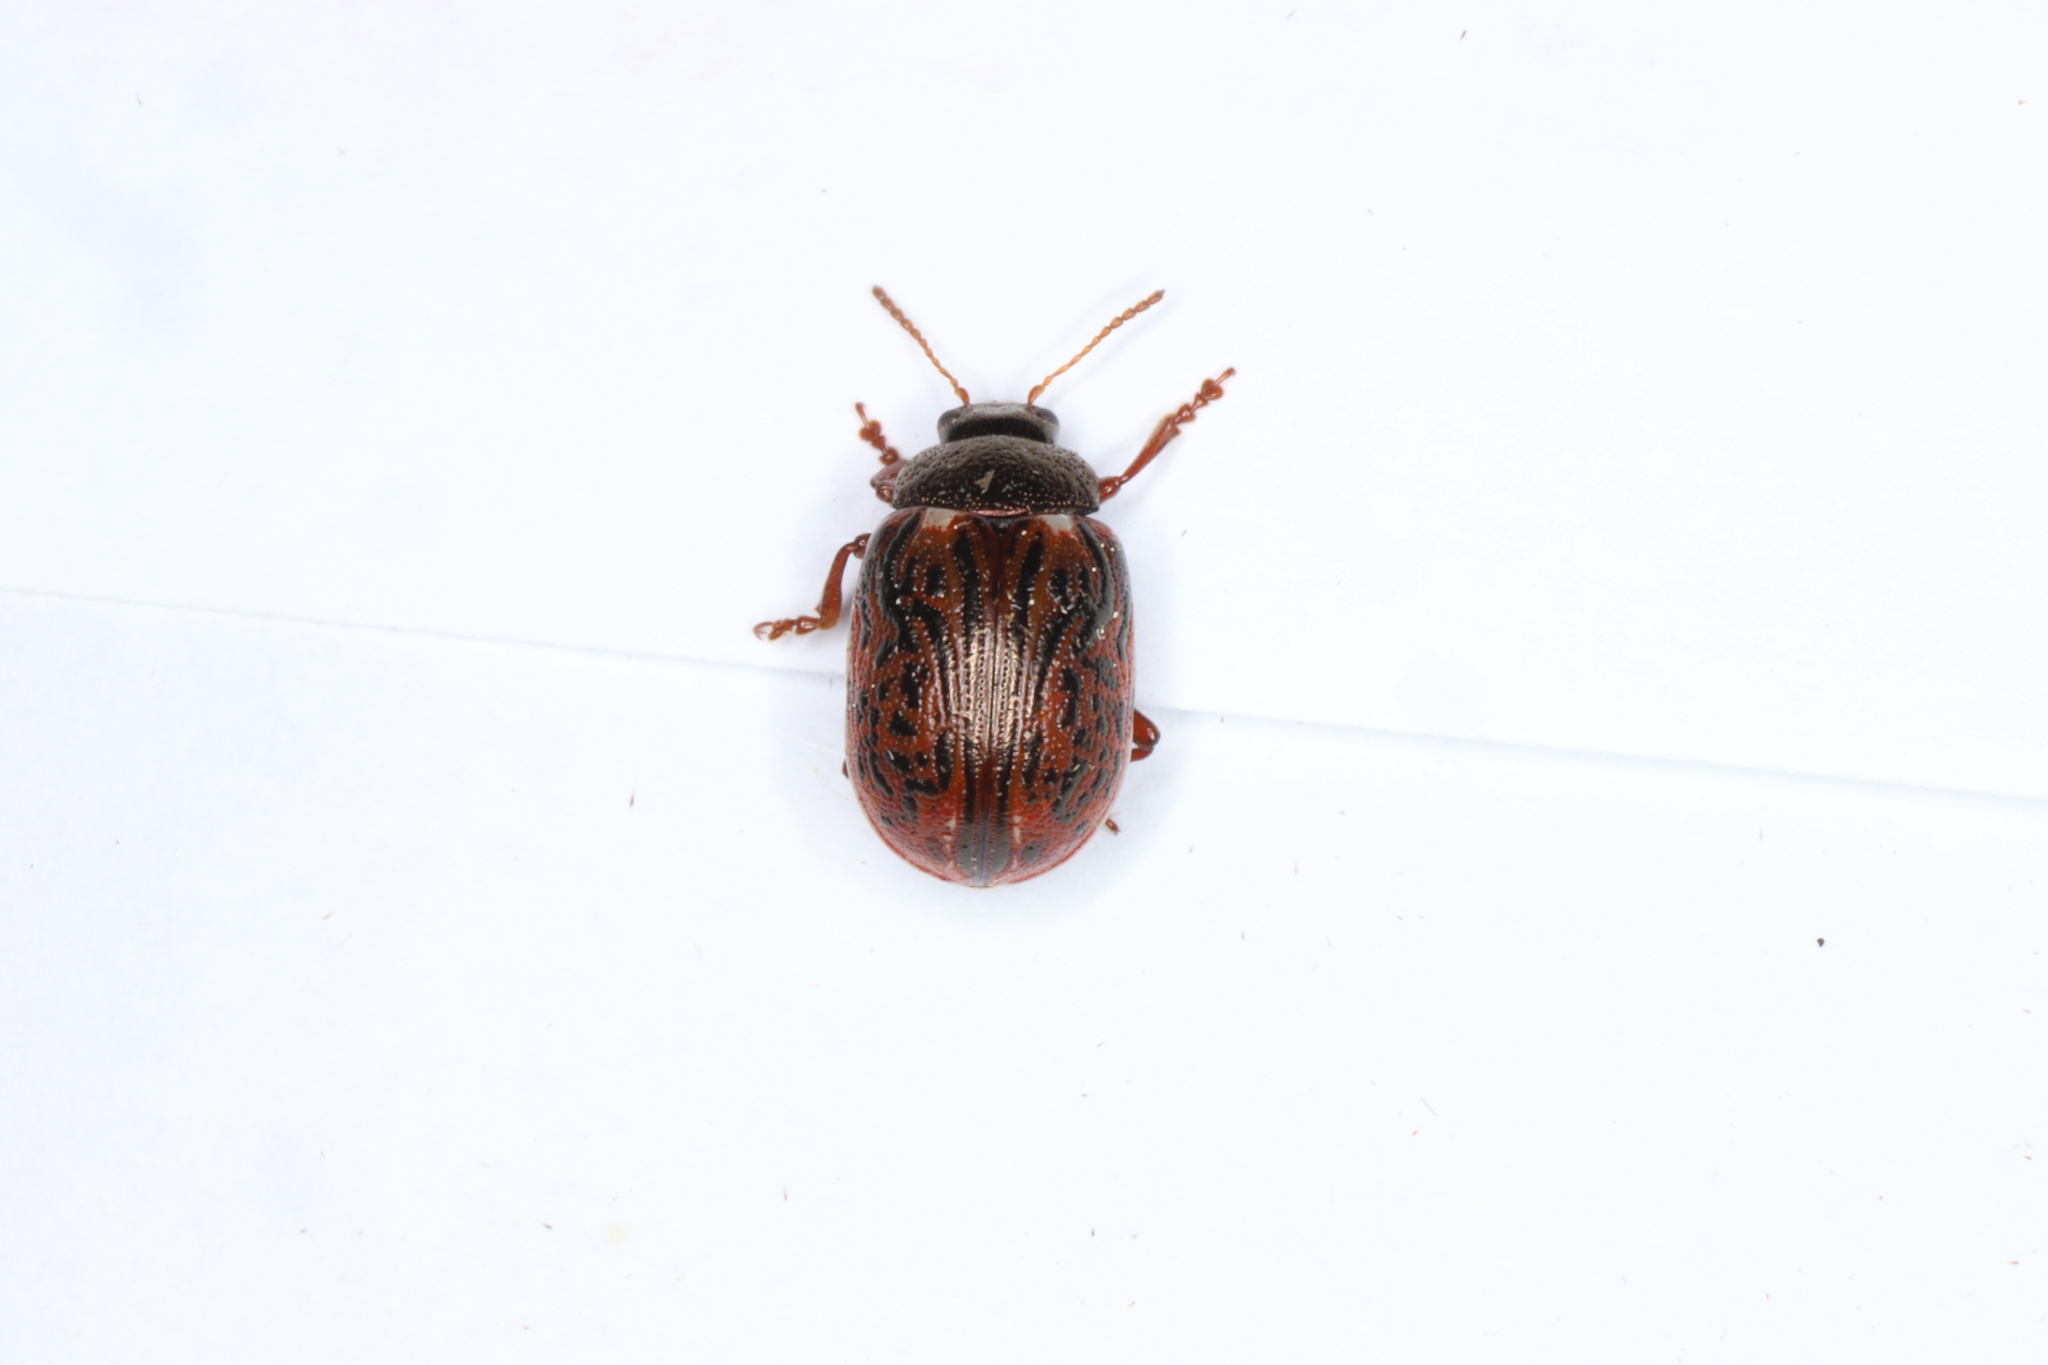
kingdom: Animalia
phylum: Arthropoda
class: Insecta
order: Coleoptera
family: Chrysomelidae
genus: Calligrapha
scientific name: Calligrapha alni
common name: Russet alder leaf beetle
